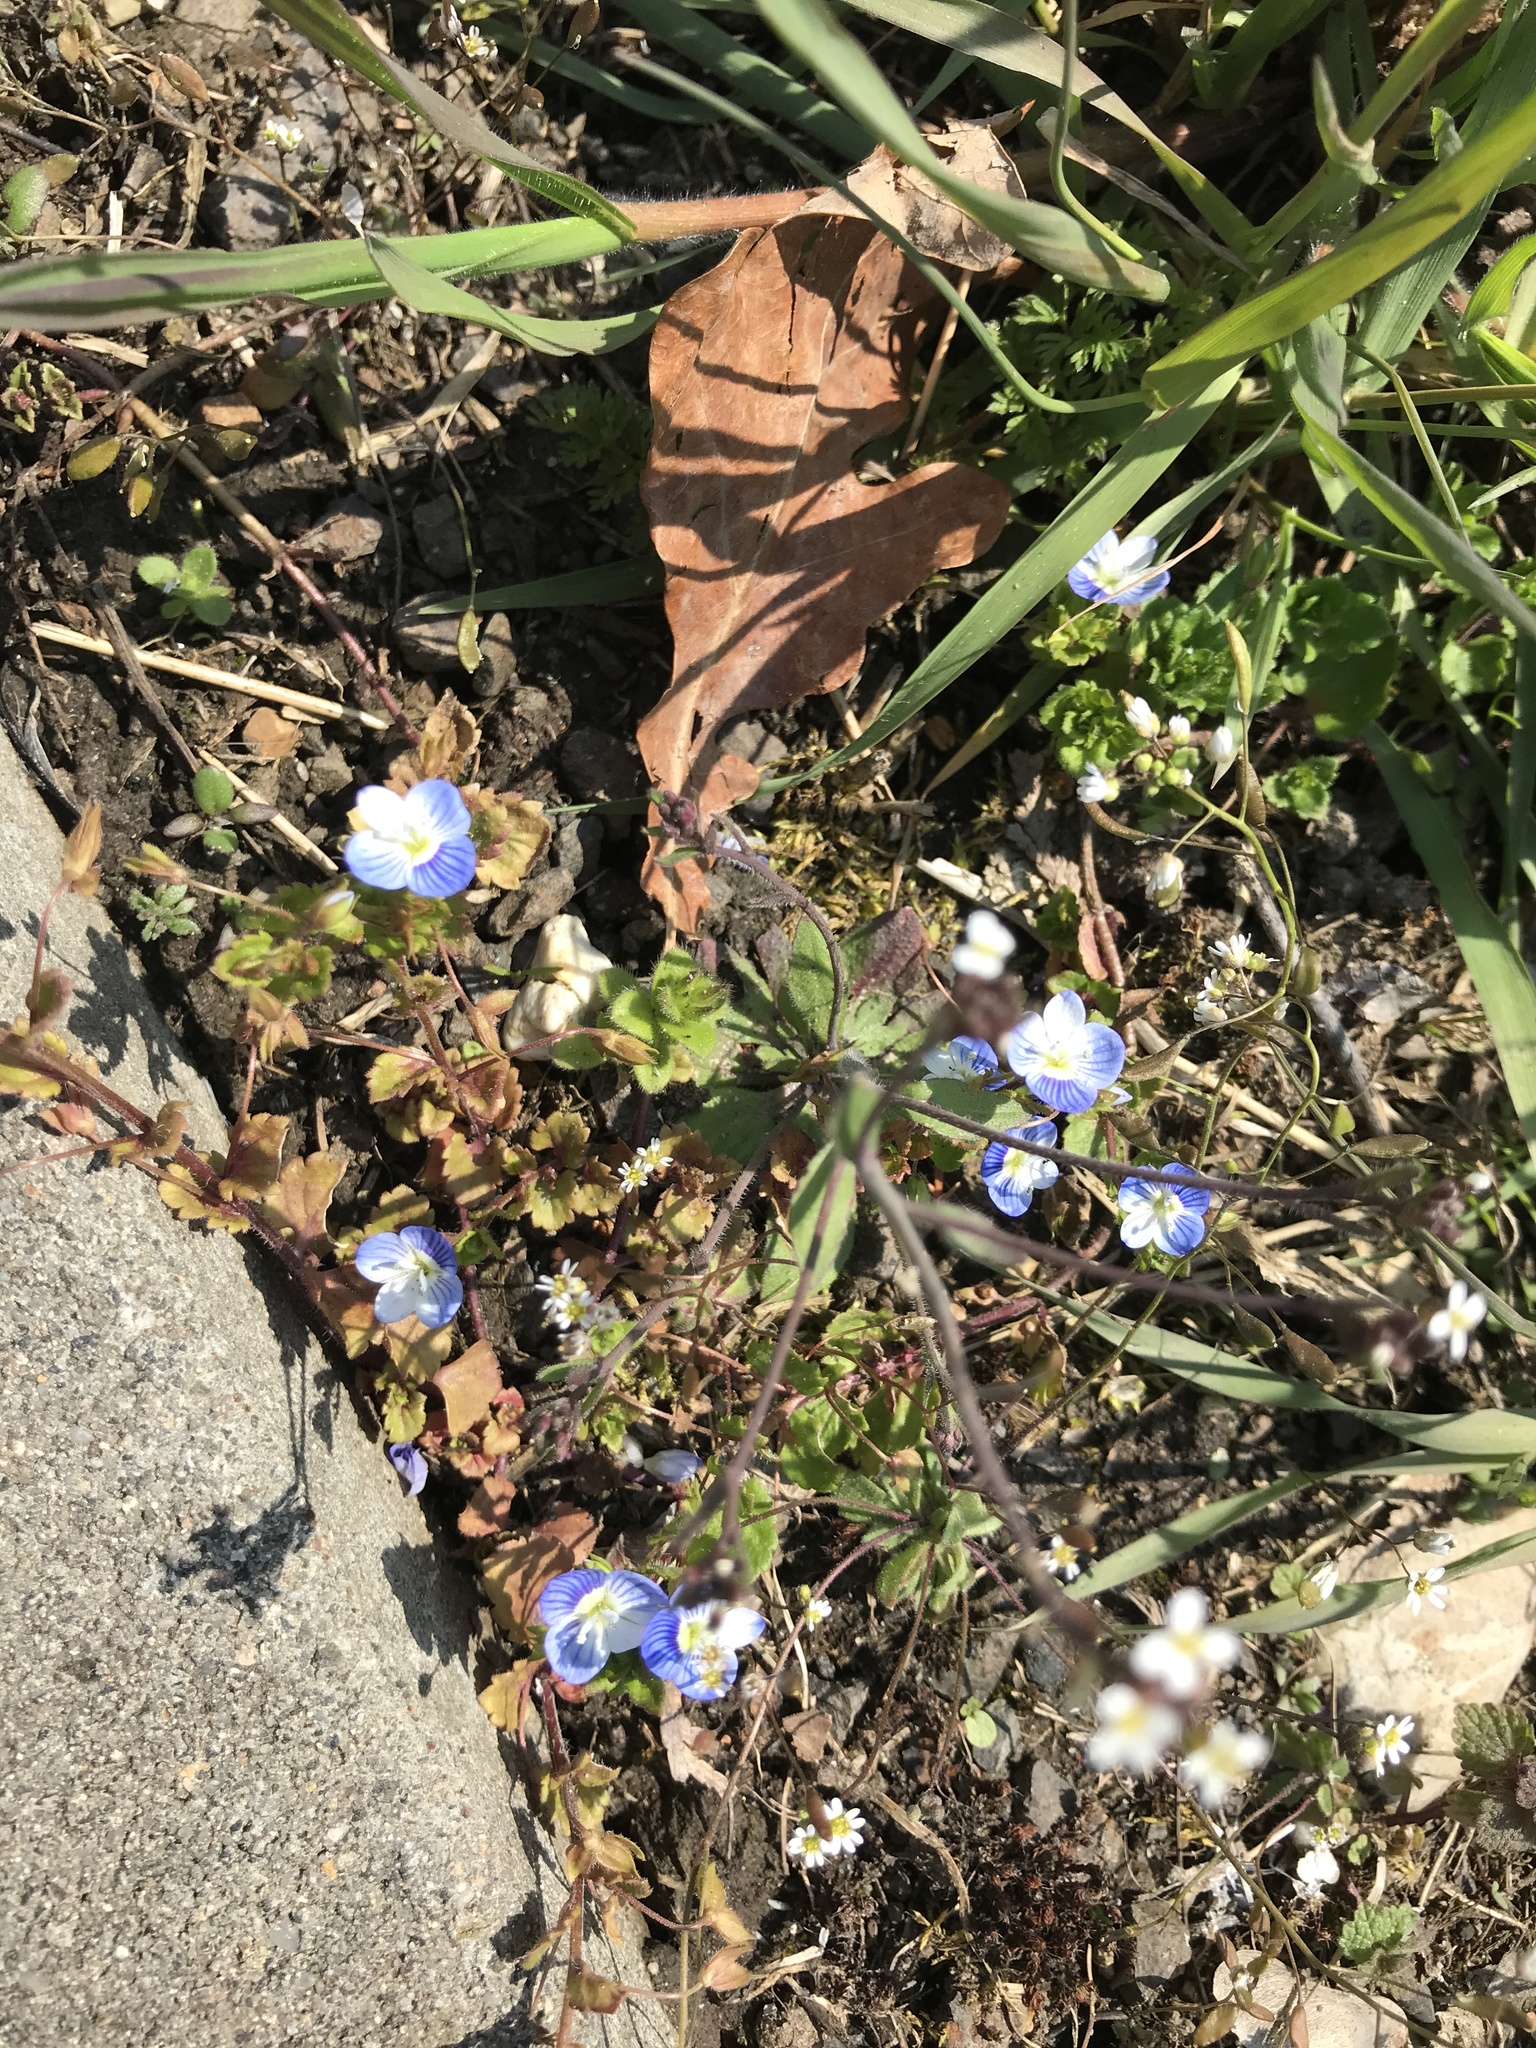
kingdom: Plantae
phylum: Tracheophyta
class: Magnoliopsida
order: Lamiales
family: Plantaginaceae
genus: Veronica
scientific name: Veronica persica
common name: Common field-speedwell
